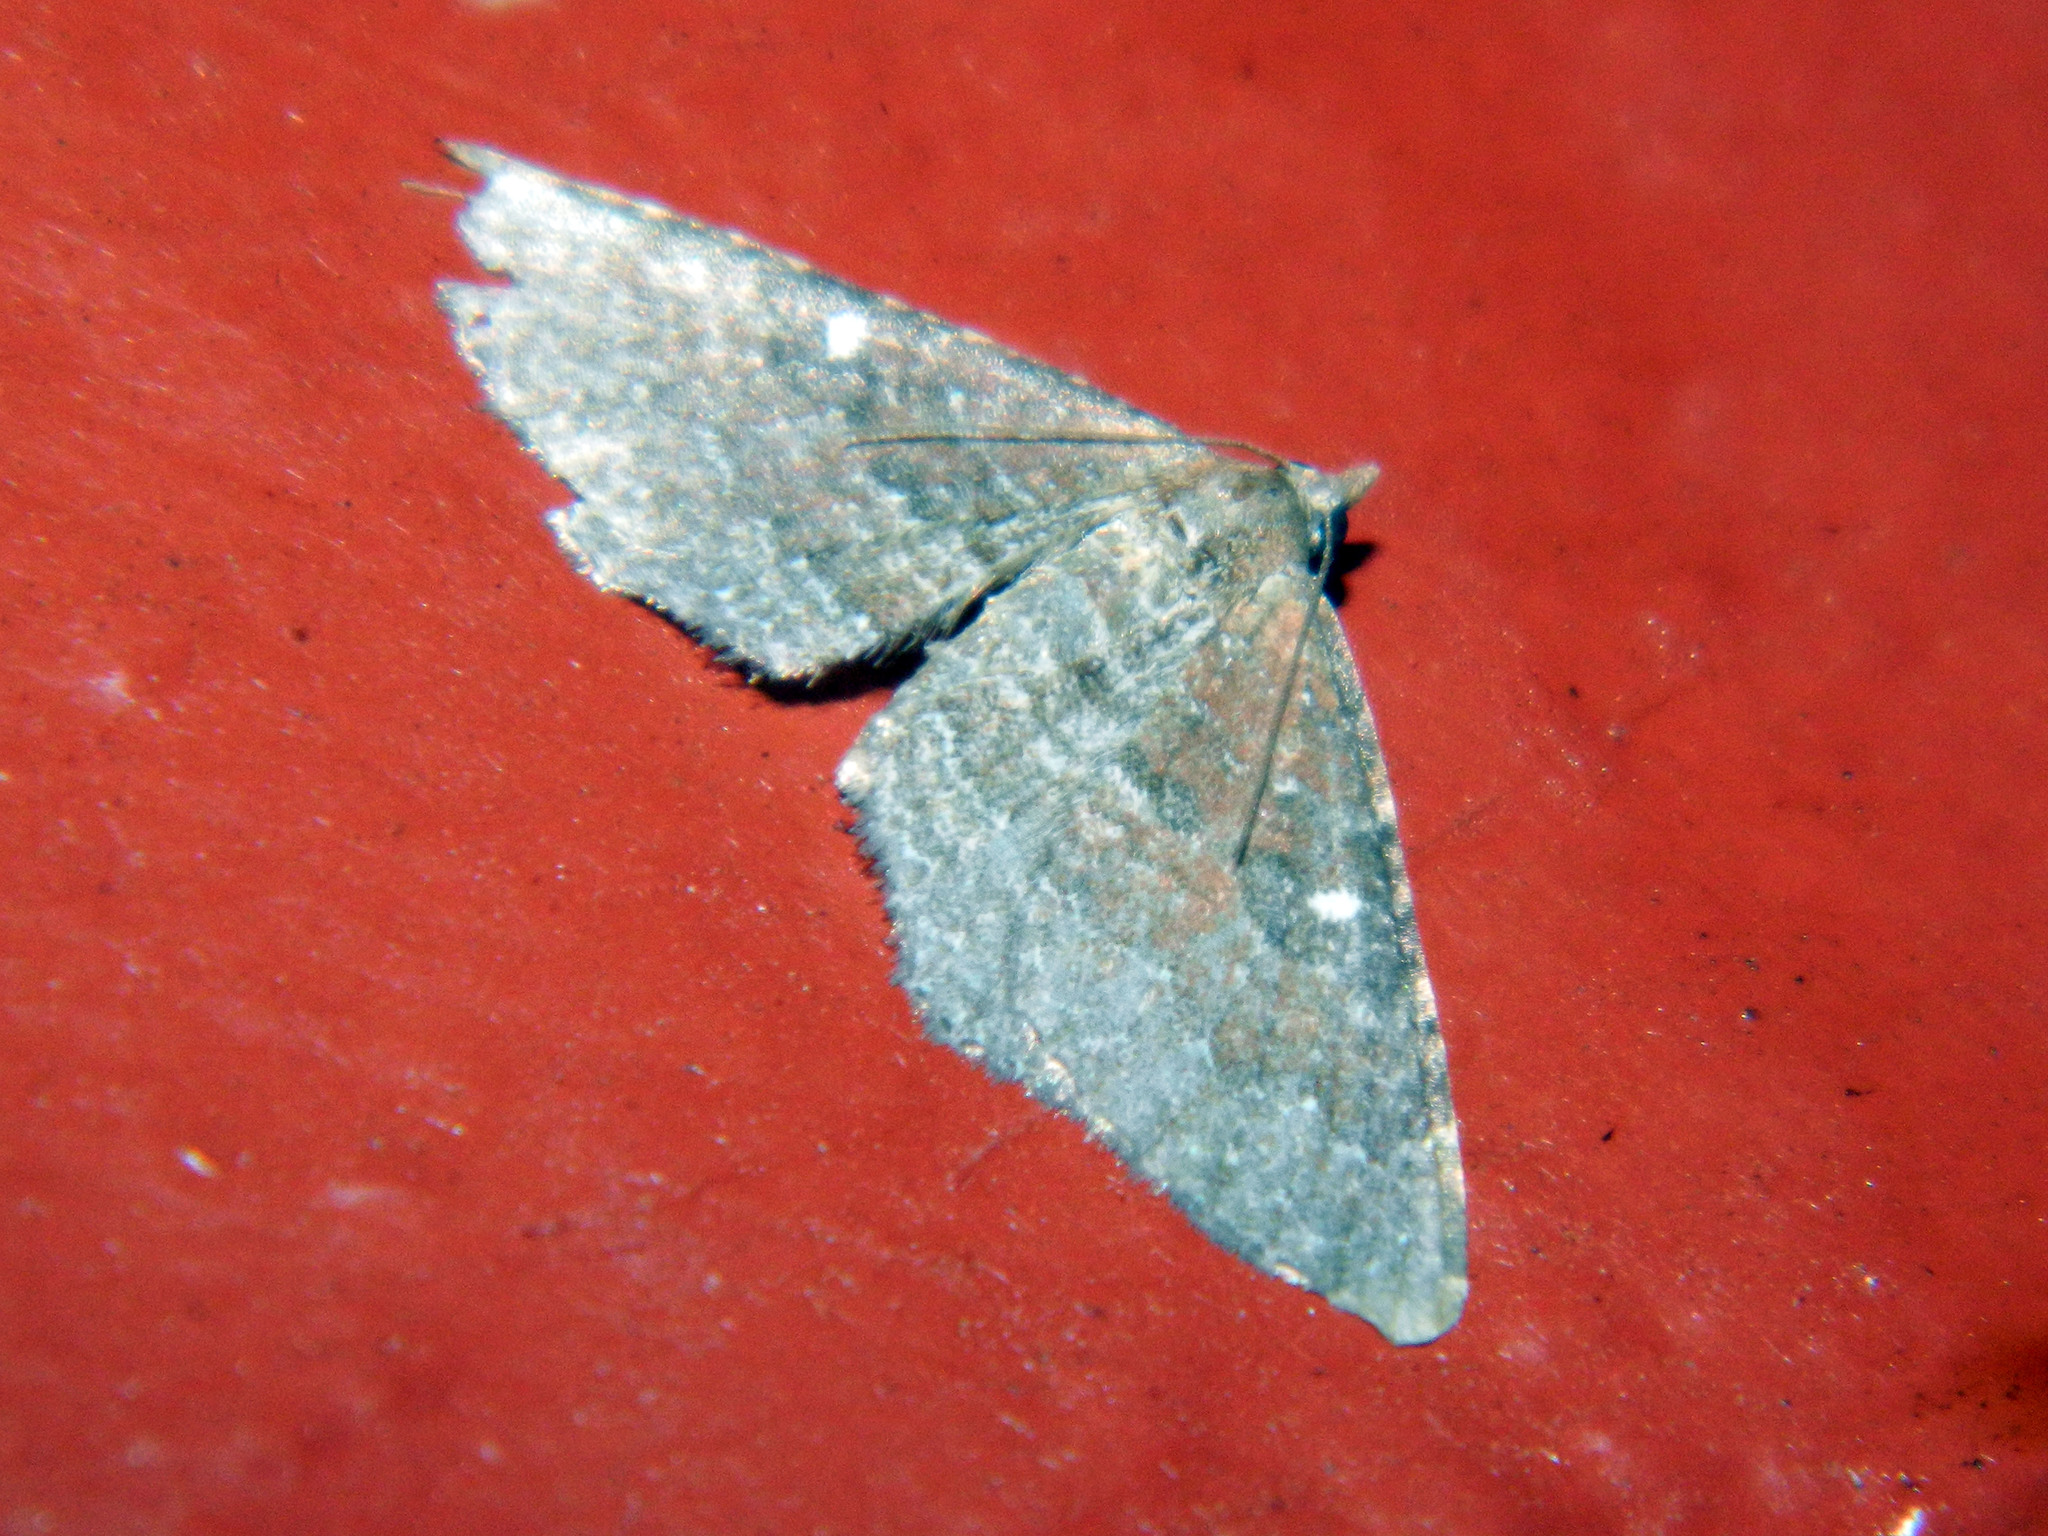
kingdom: Animalia
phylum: Arthropoda
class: Insecta
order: Lepidoptera
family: Geometridae
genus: Orthonama
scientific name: Orthonama obstipata
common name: The gem
